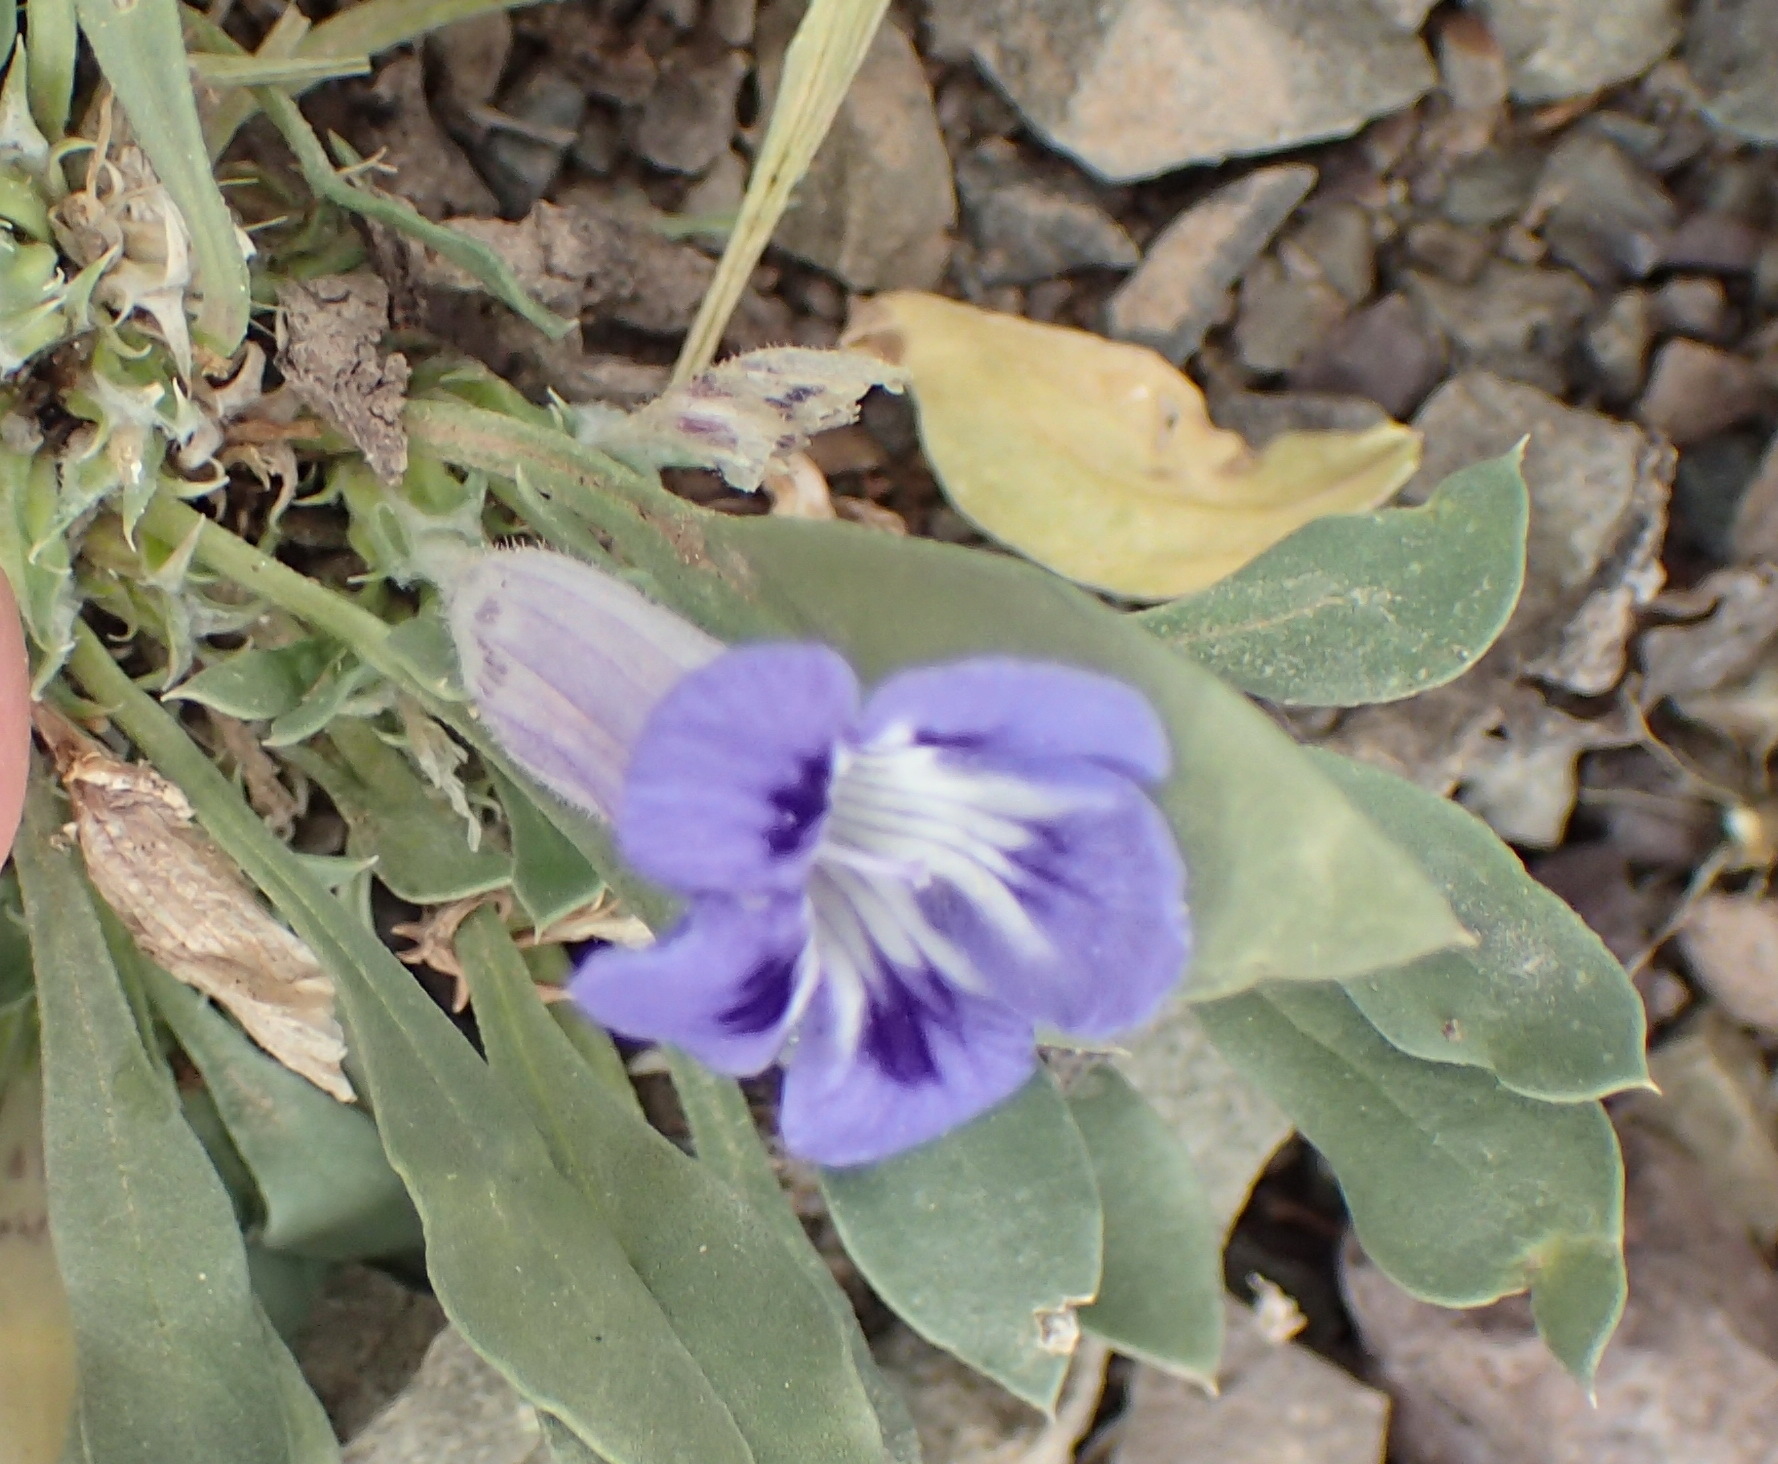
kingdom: Plantae
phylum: Tracheophyta
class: Magnoliopsida
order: Lamiales
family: Scrophulariaceae
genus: Aptosimum
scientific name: Aptosimum indivisum
